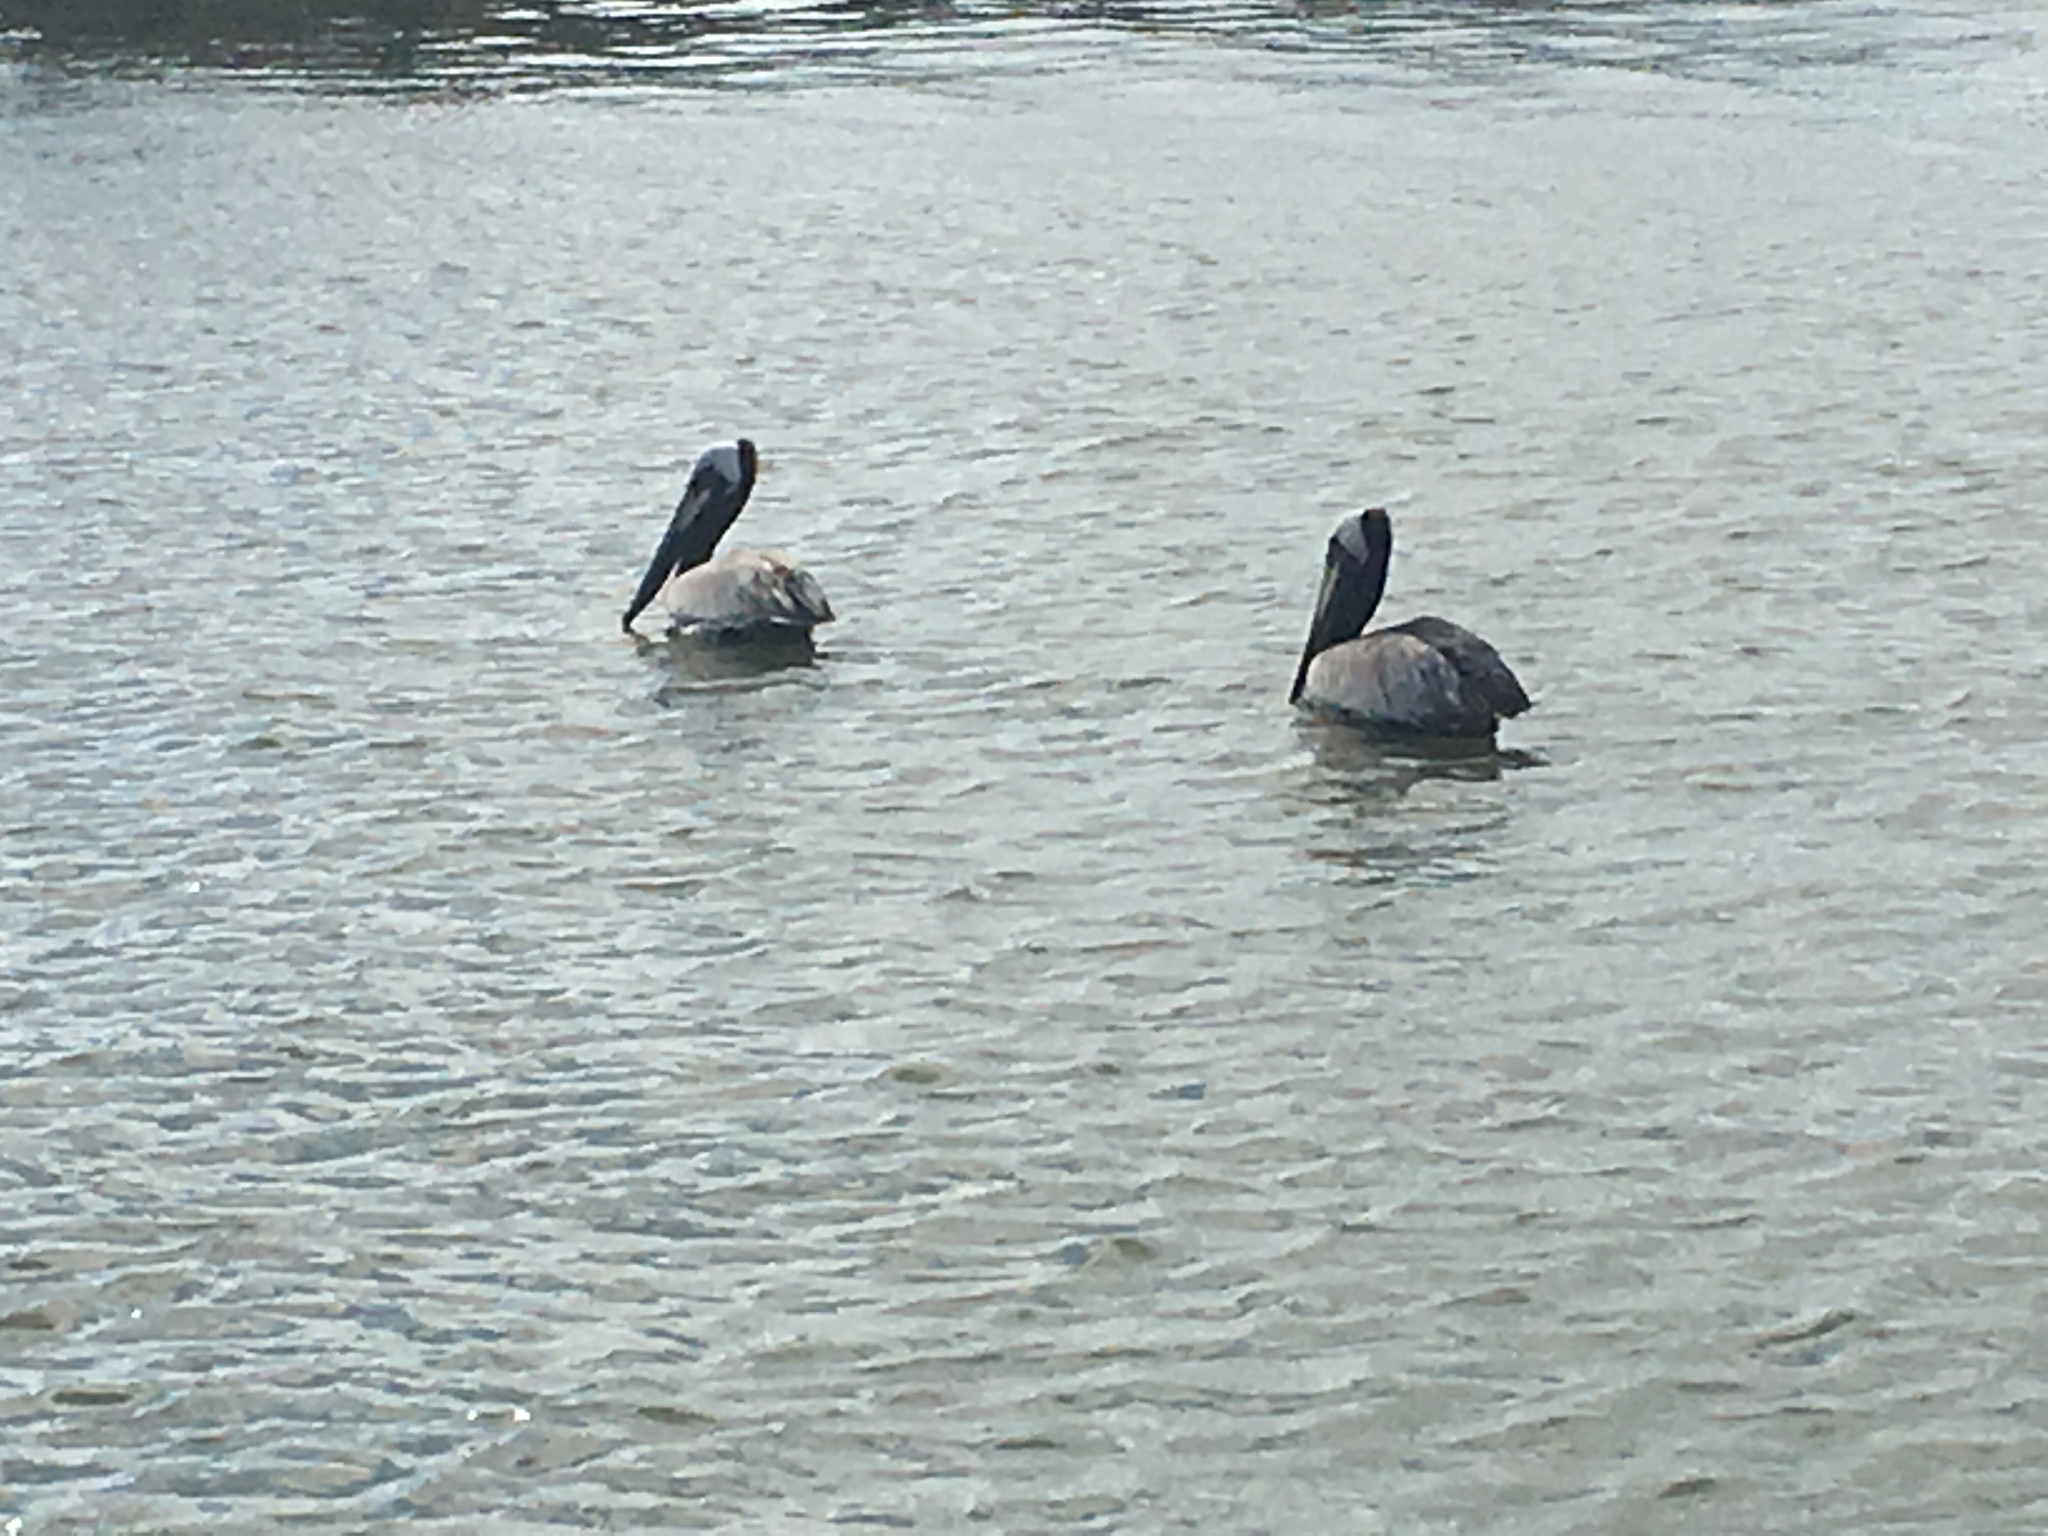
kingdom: Animalia
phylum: Chordata
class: Aves
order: Pelecaniformes
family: Pelecanidae
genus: Pelecanus
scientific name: Pelecanus occidentalis
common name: Brown pelican
